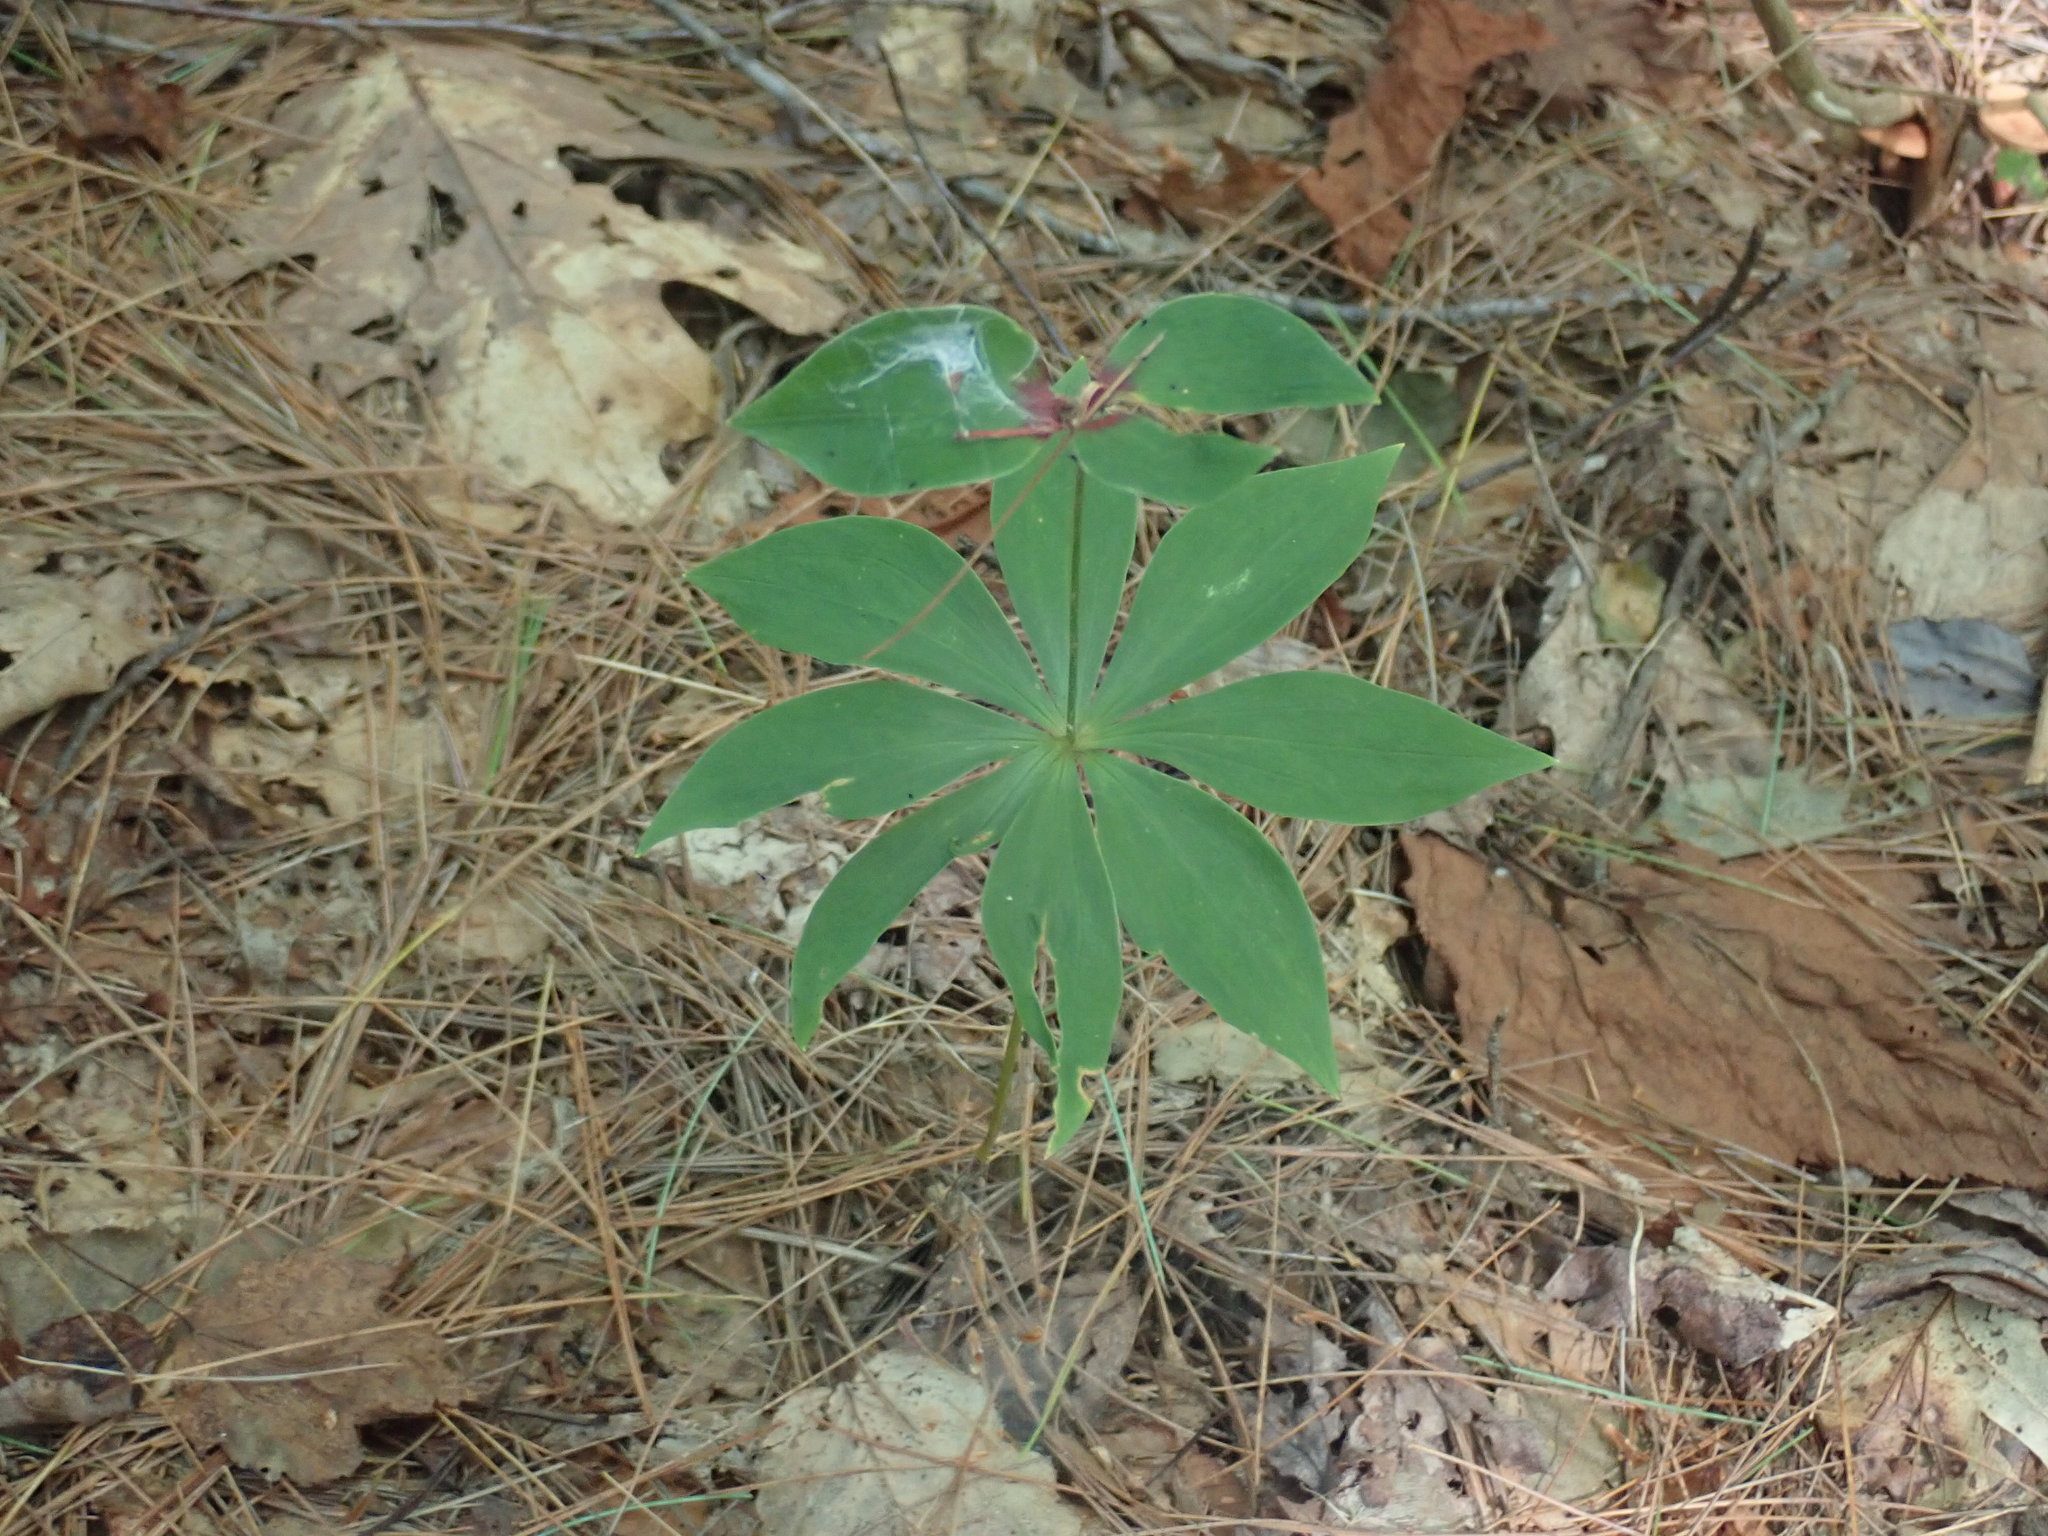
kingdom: Plantae
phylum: Tracheophyta
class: Liliopsida
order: Liliales
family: Liliaceae
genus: Medeola
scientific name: Medeola virginiana
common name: Indian cucumber-root
